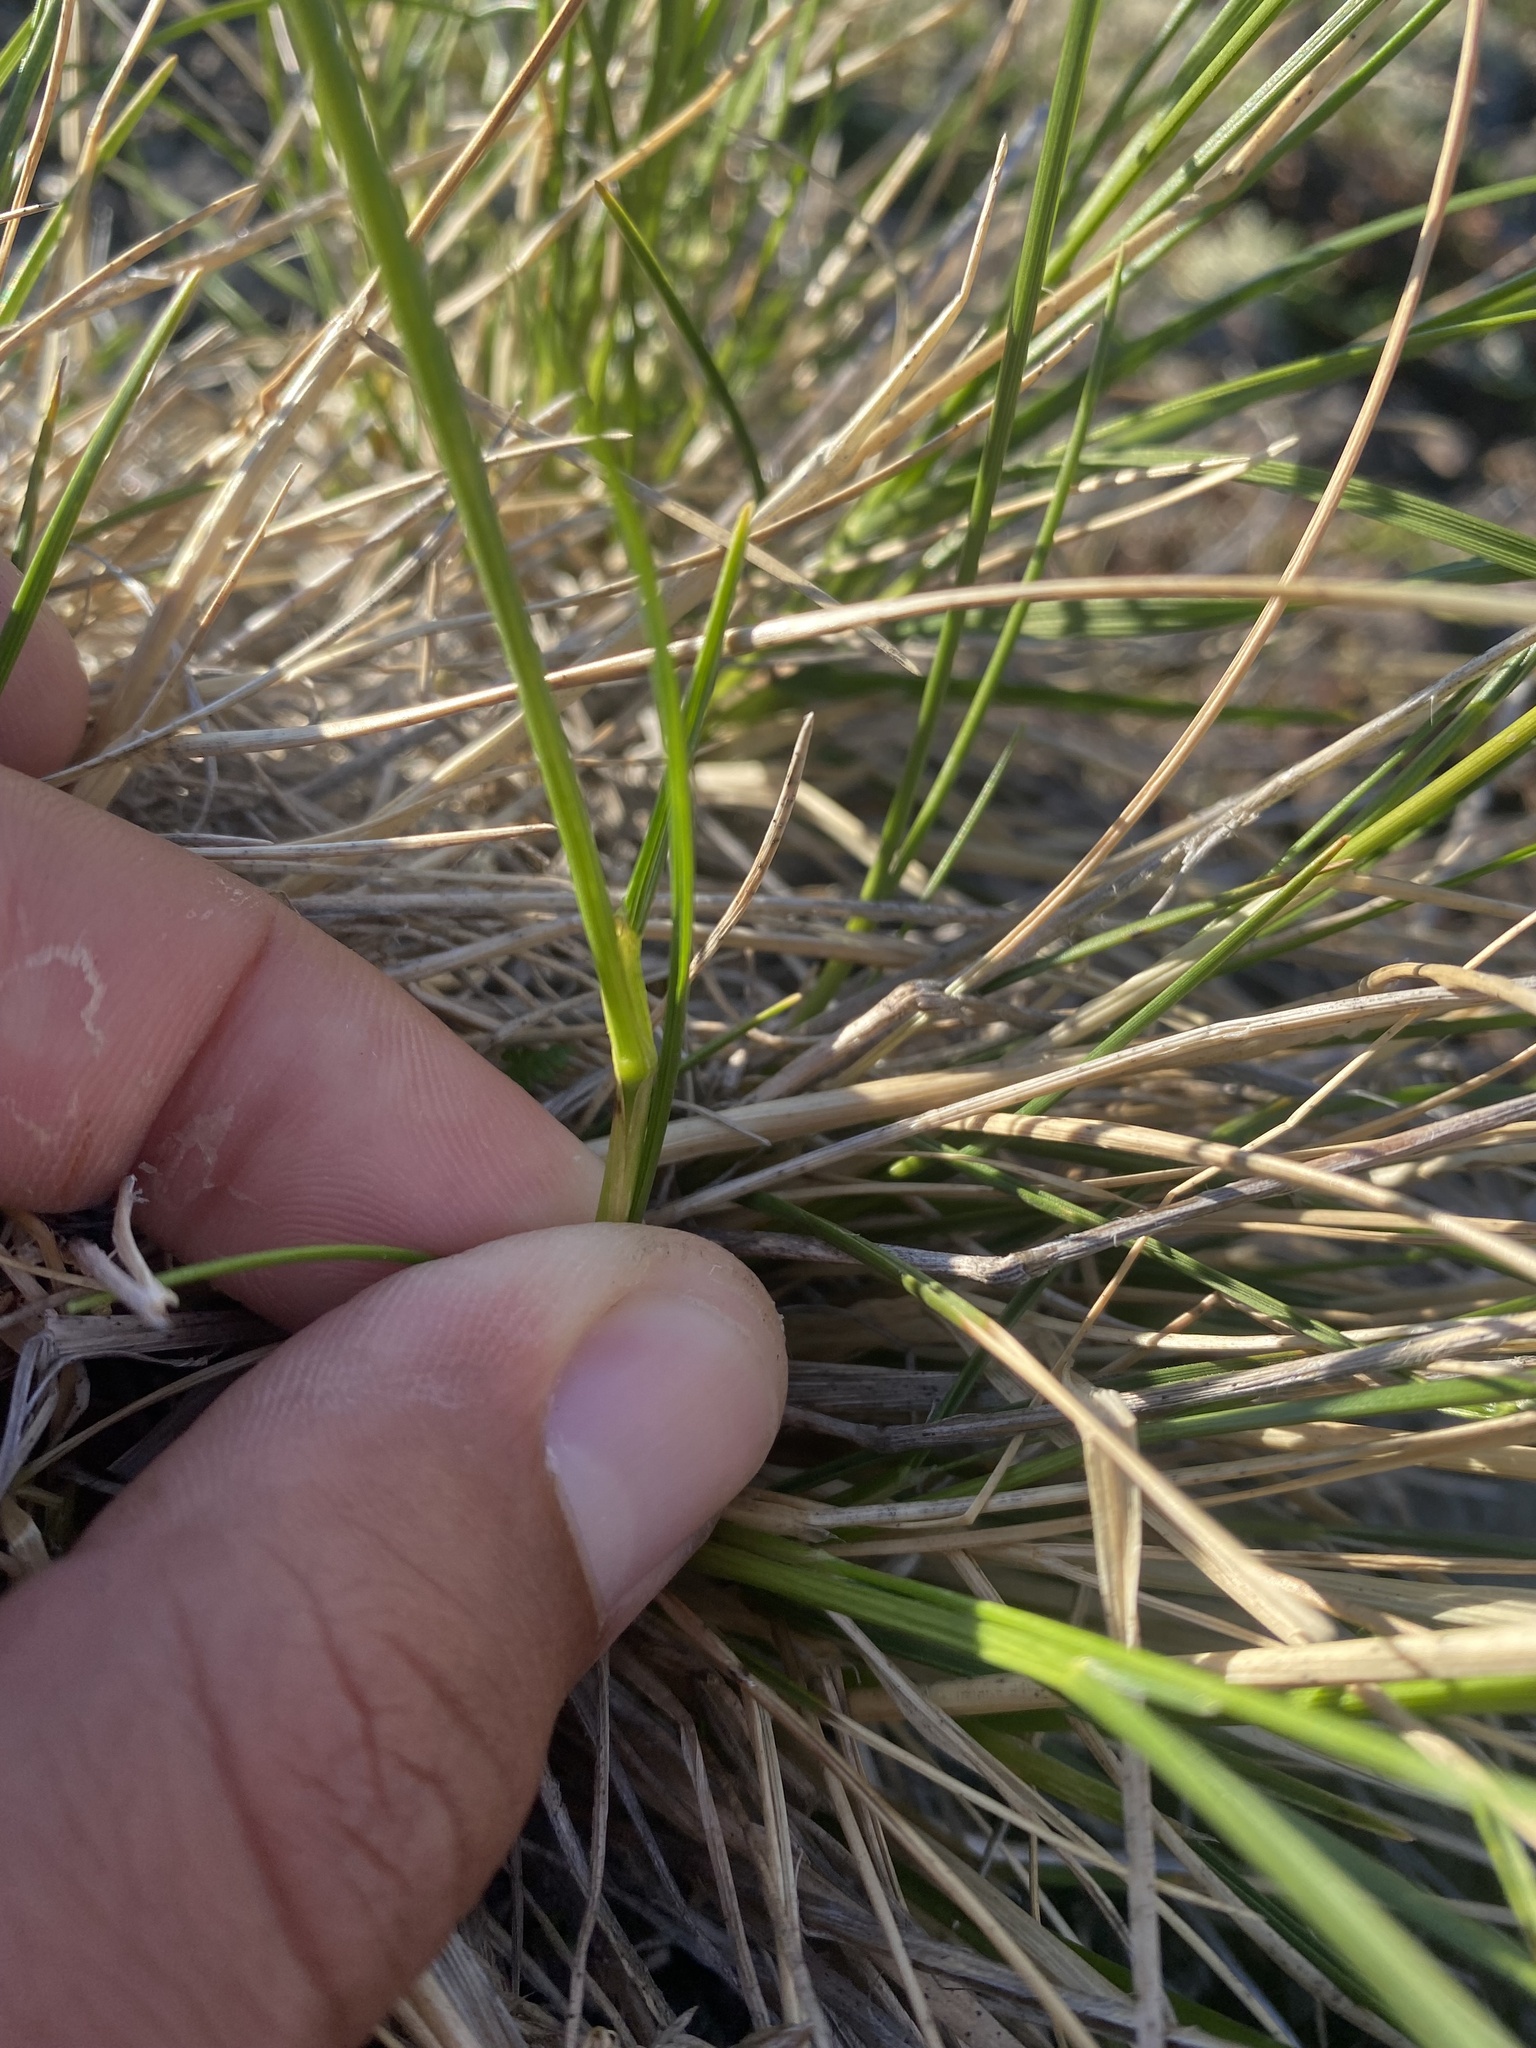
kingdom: Plantae
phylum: Tracheophyta
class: Liliopsida
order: Poales
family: Poaceae
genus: Deschampsia
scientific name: Deschampsia cespitosa
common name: Tufted hair-grass
